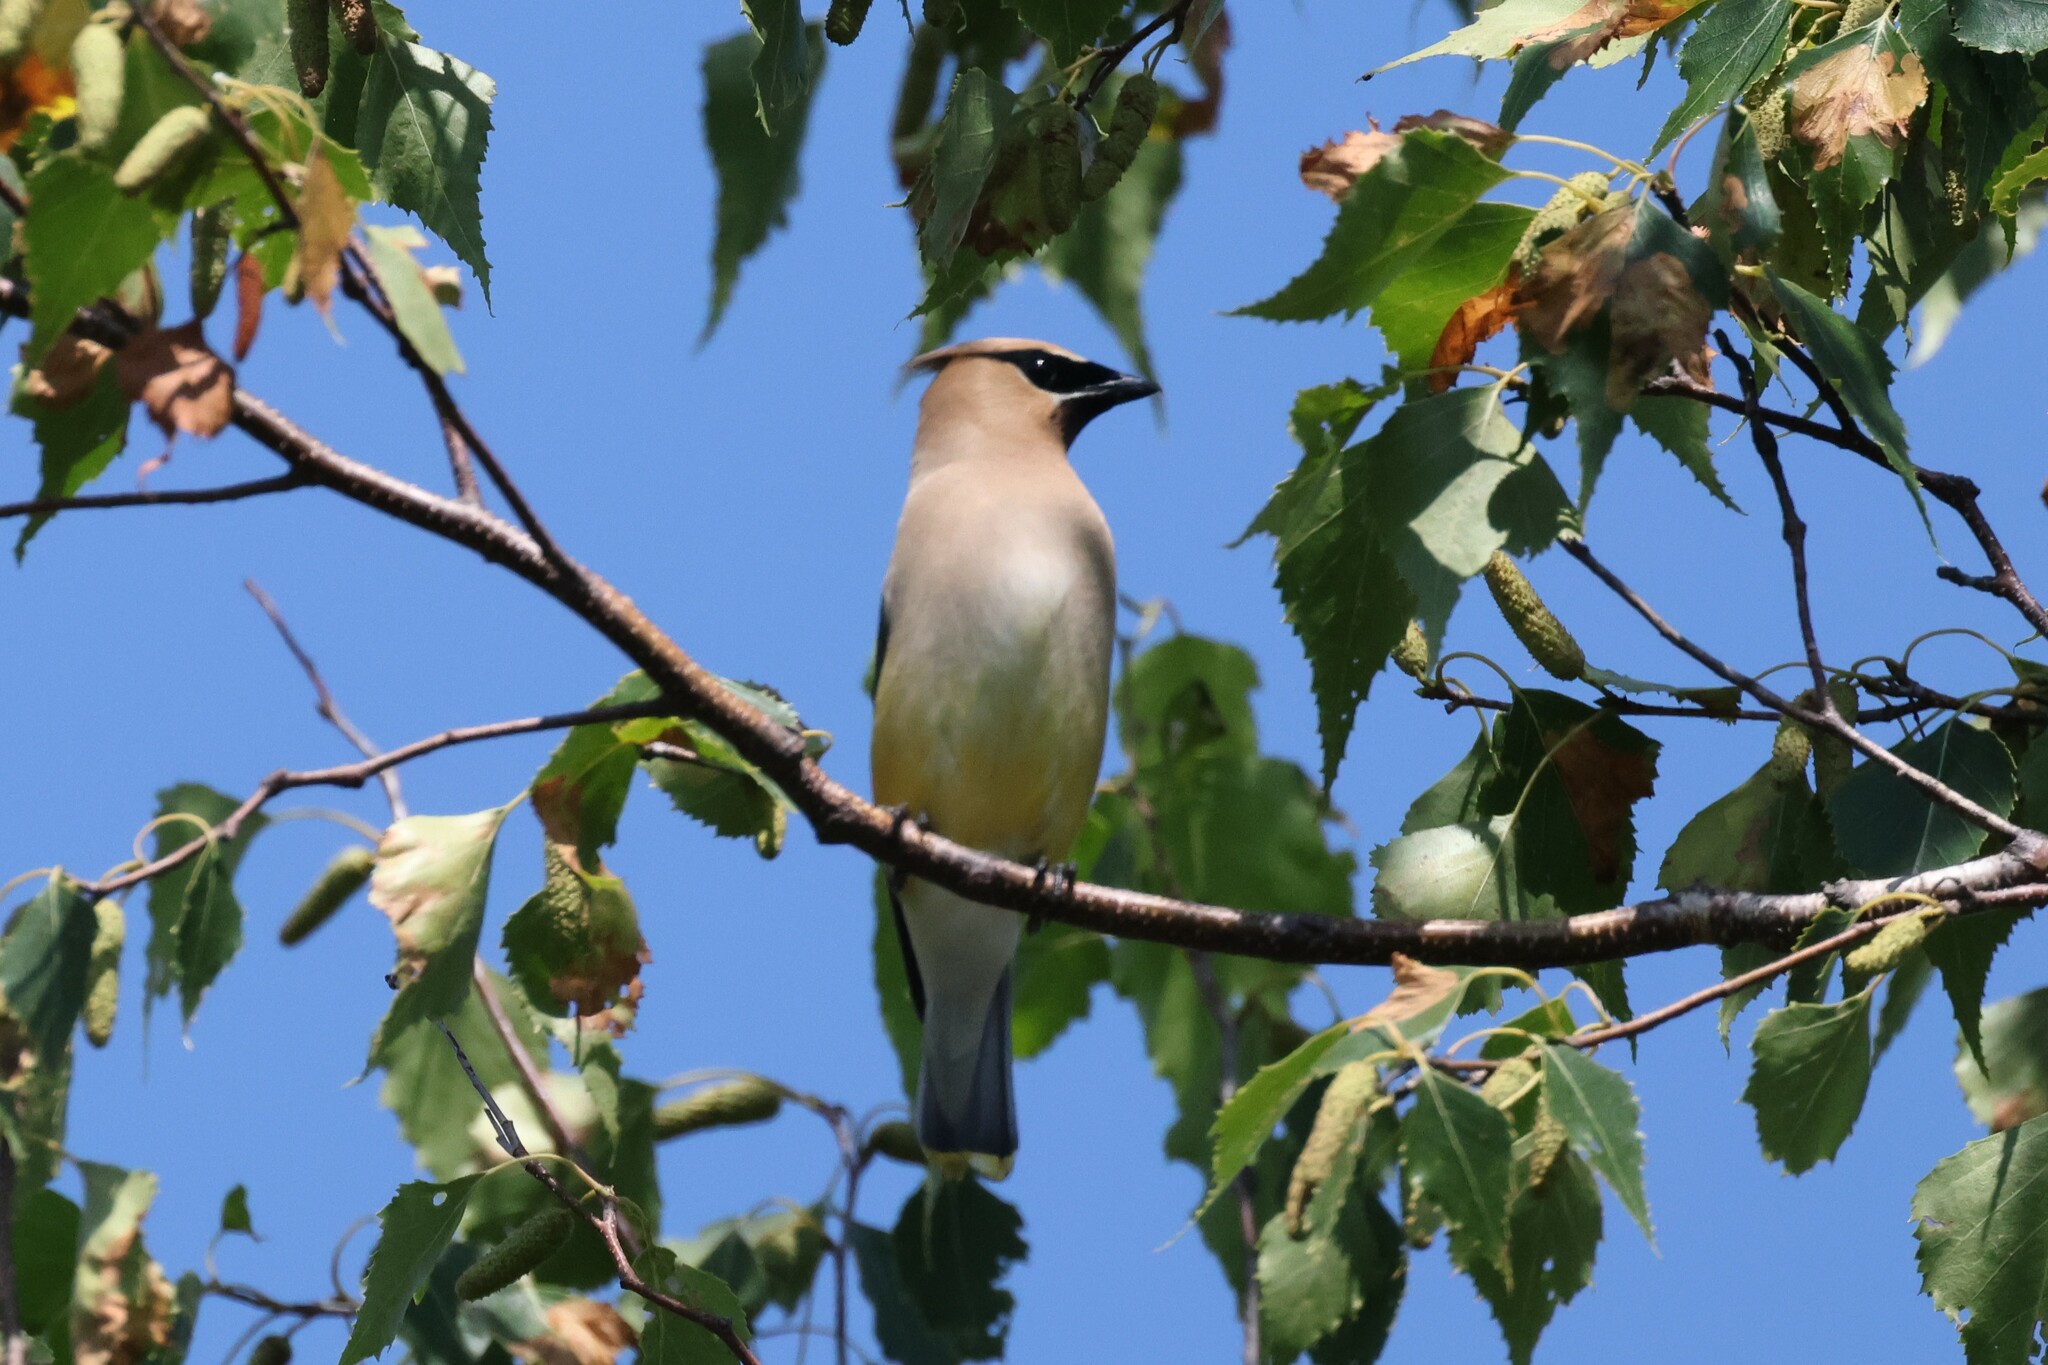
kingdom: Animalia
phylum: Chordata
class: Aves
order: Passeriformes
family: Bombycillidae
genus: Bombycilla
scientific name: Bombycilla cedrorum
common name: Cedar waxwing
